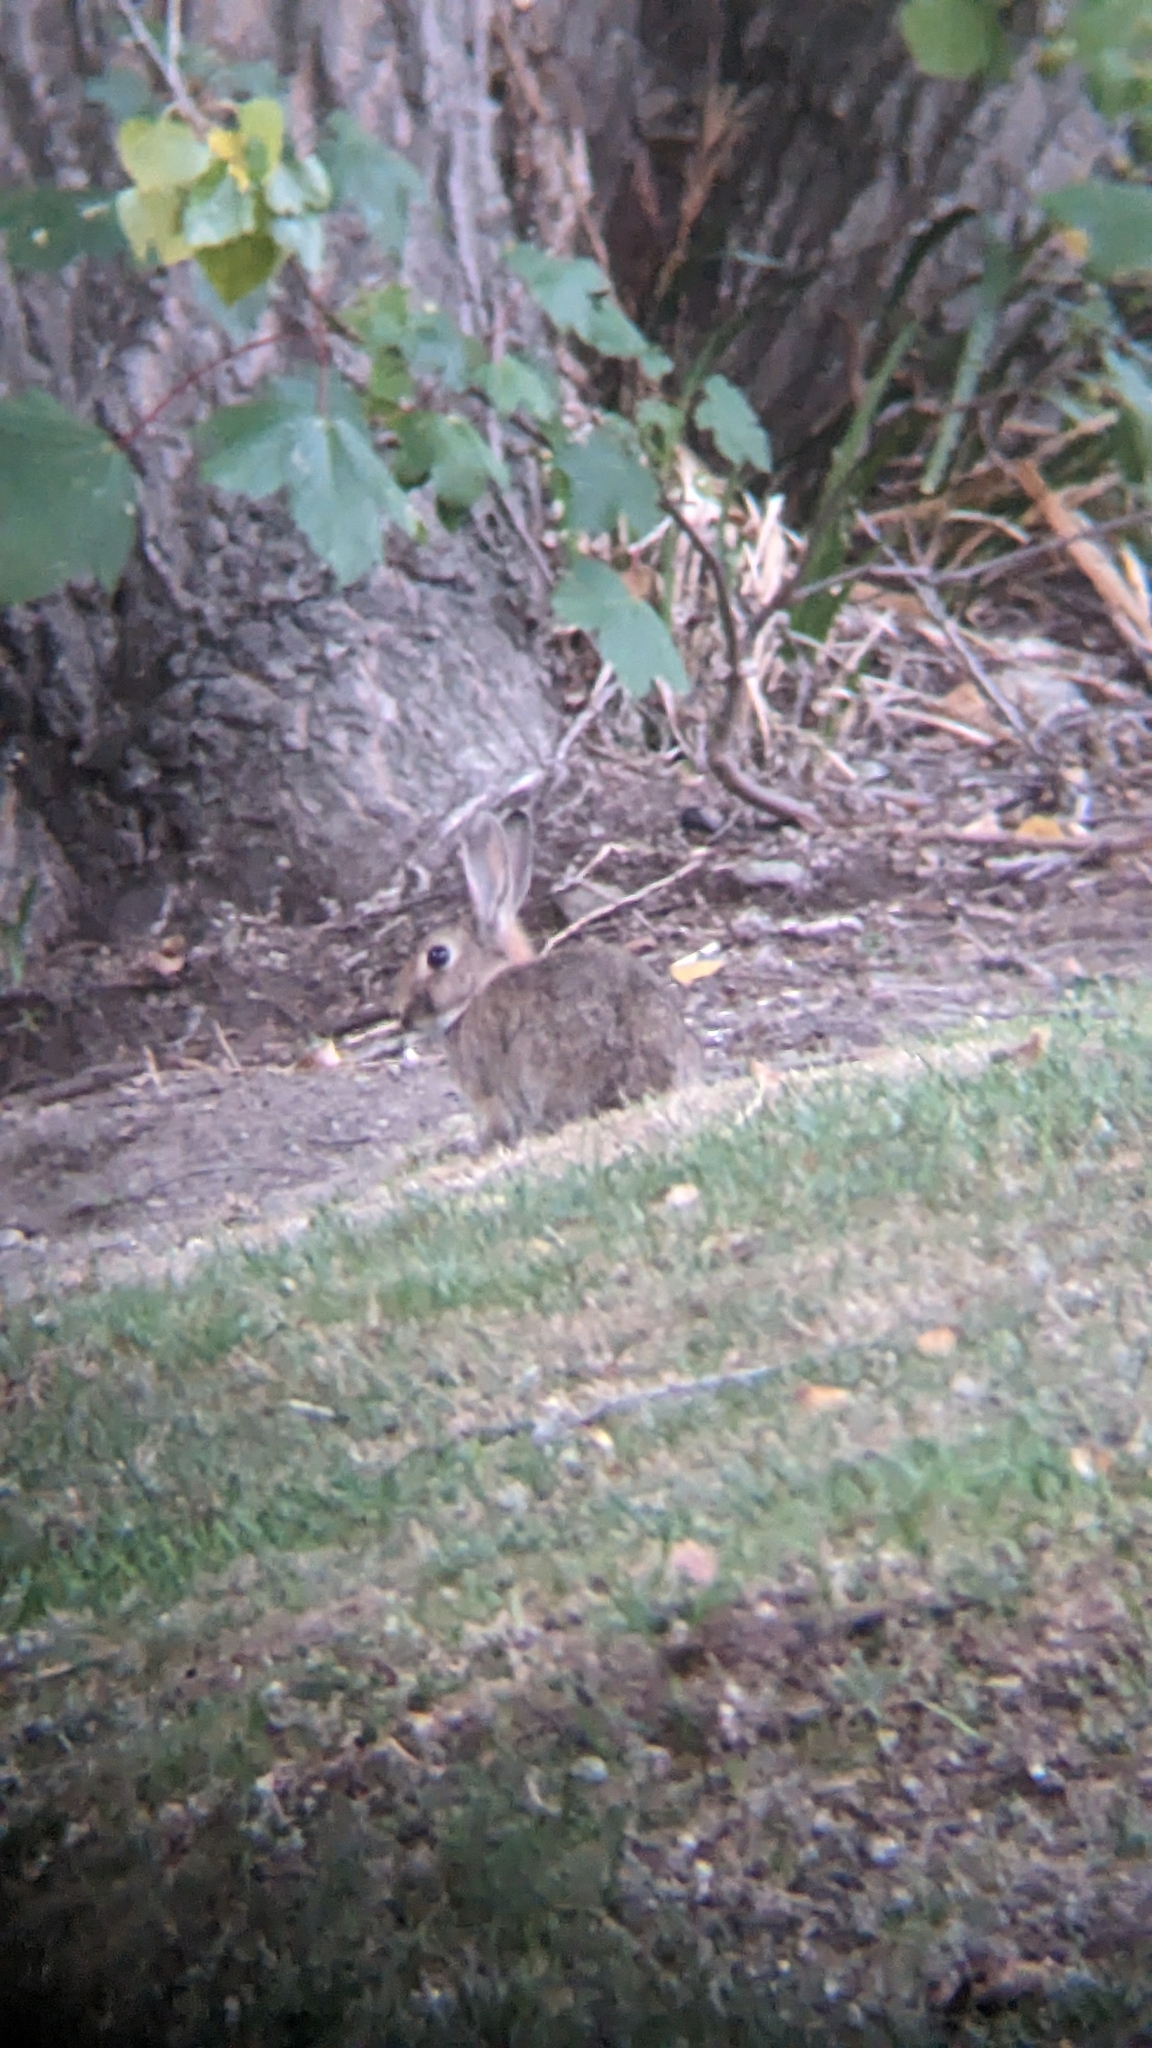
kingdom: Animalia
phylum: Chordata
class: Mammalia
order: Lagomorpha
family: Leporidae
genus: Oryctolagus
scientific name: Oryctolagus cuniculus
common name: European rabbit
